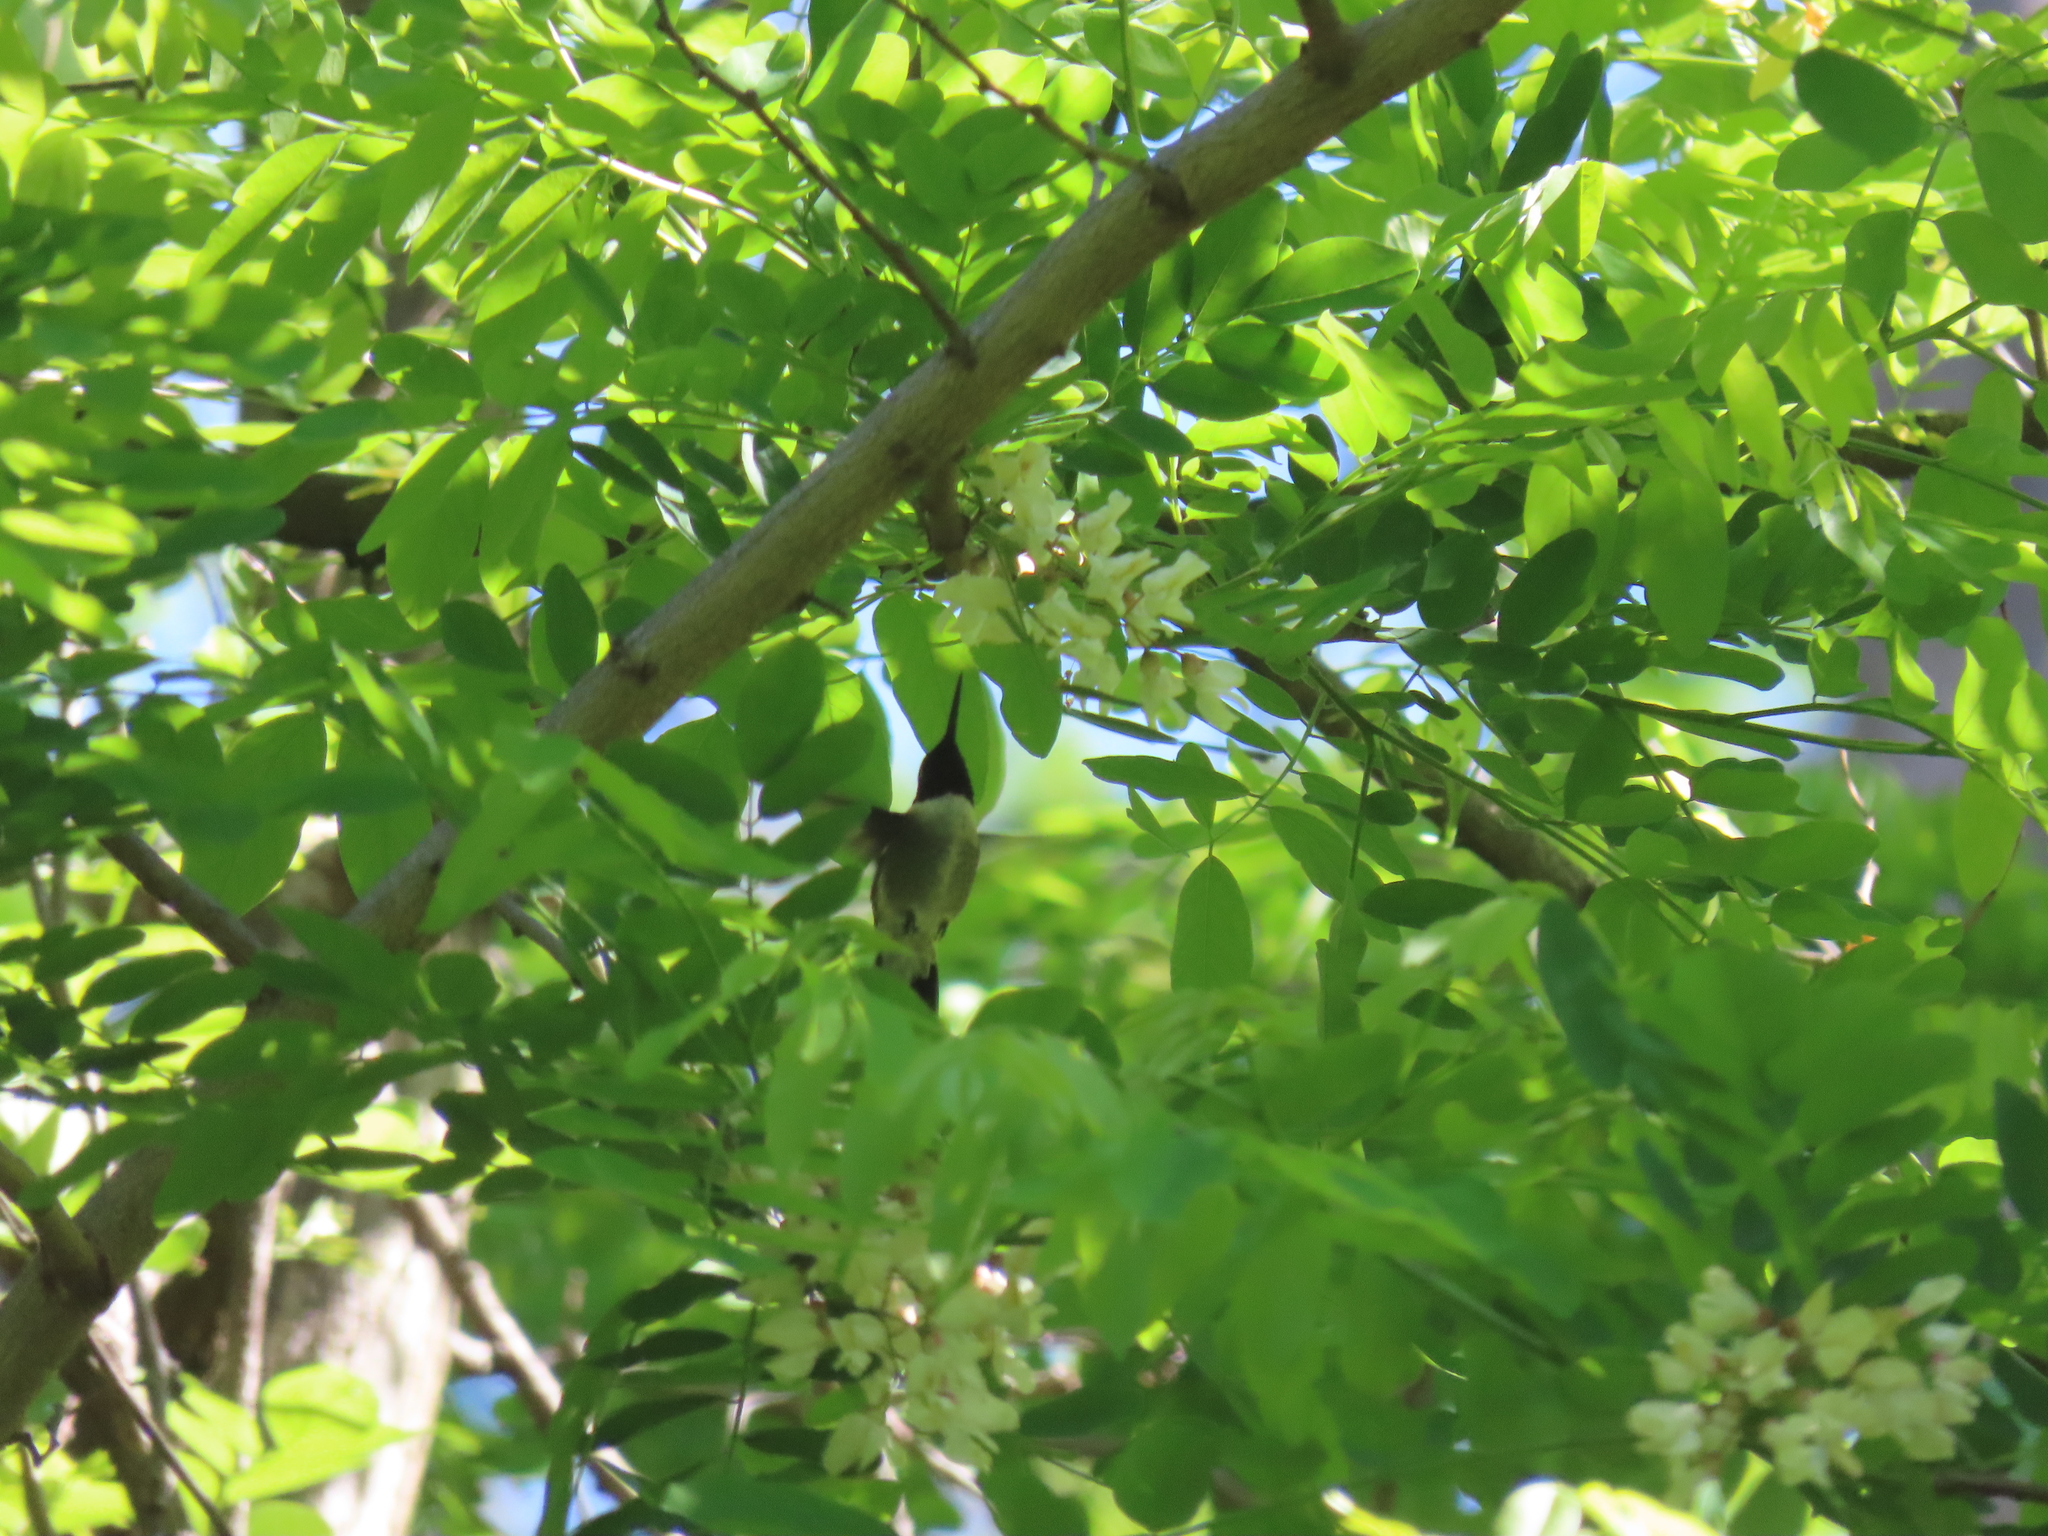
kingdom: Animalia
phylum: Chordata
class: Aves
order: Apodiformes
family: Trochilidae
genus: Archilochus
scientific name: Archilochus colubris
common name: Ruby-throated hummingbird
